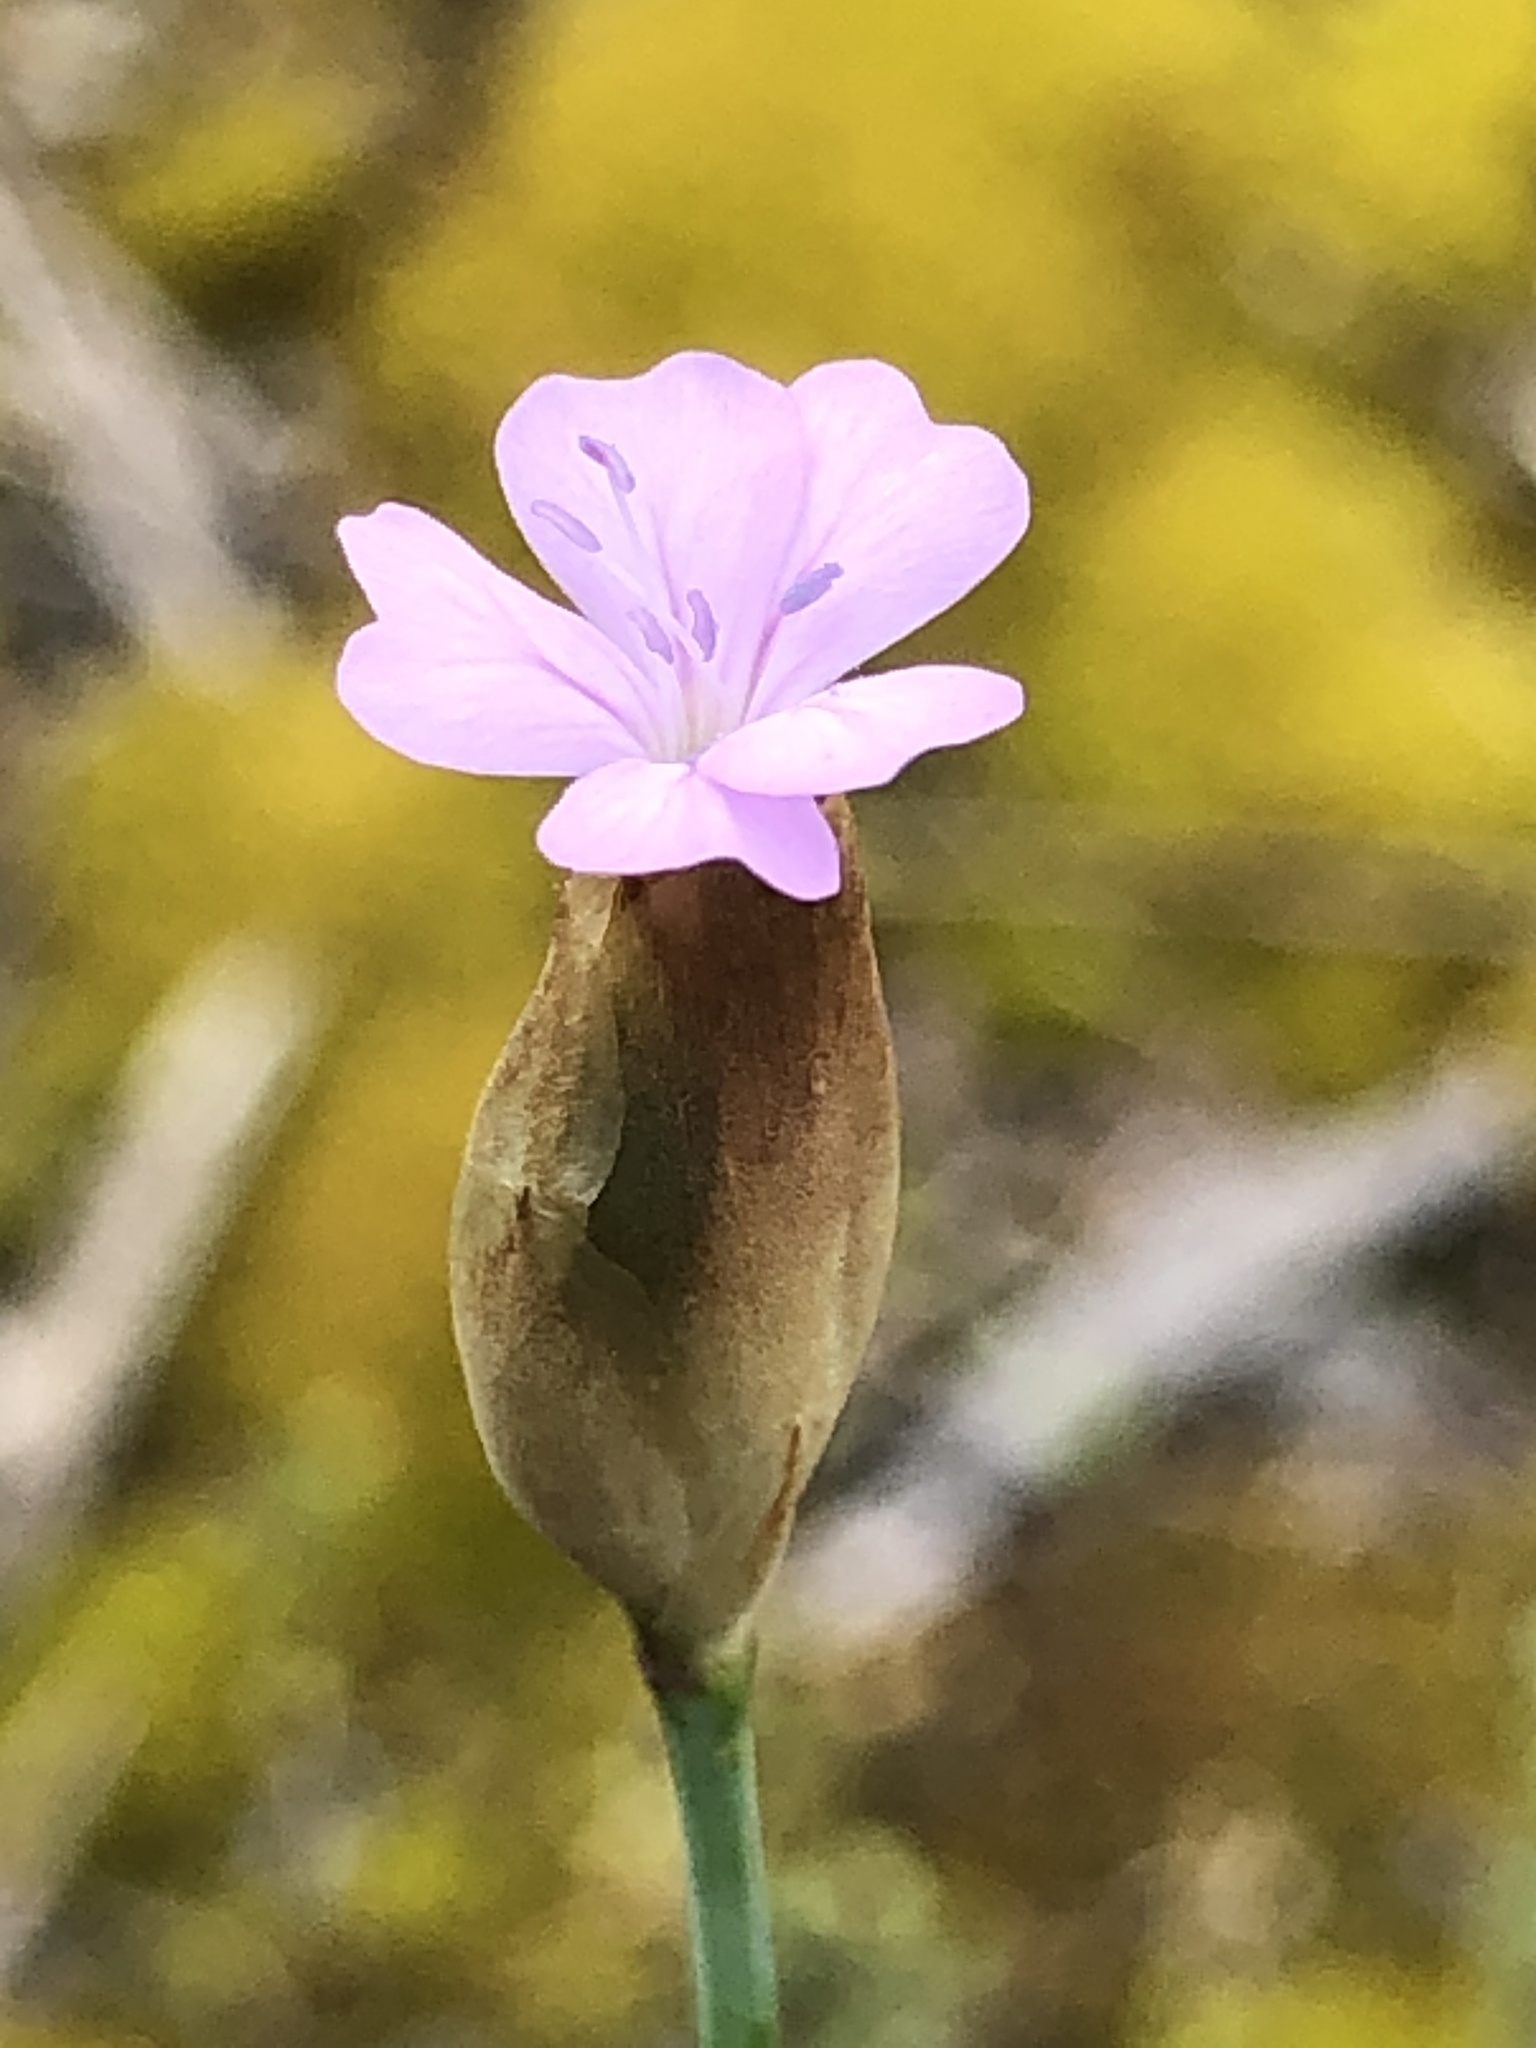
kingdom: Plantae
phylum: Tracheophyta
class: Magnoliopsida
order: Caryophyllales
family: Caryophyllaceae
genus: Petrorhagia
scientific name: Petrorhagia prolifera
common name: Proliferous pink
